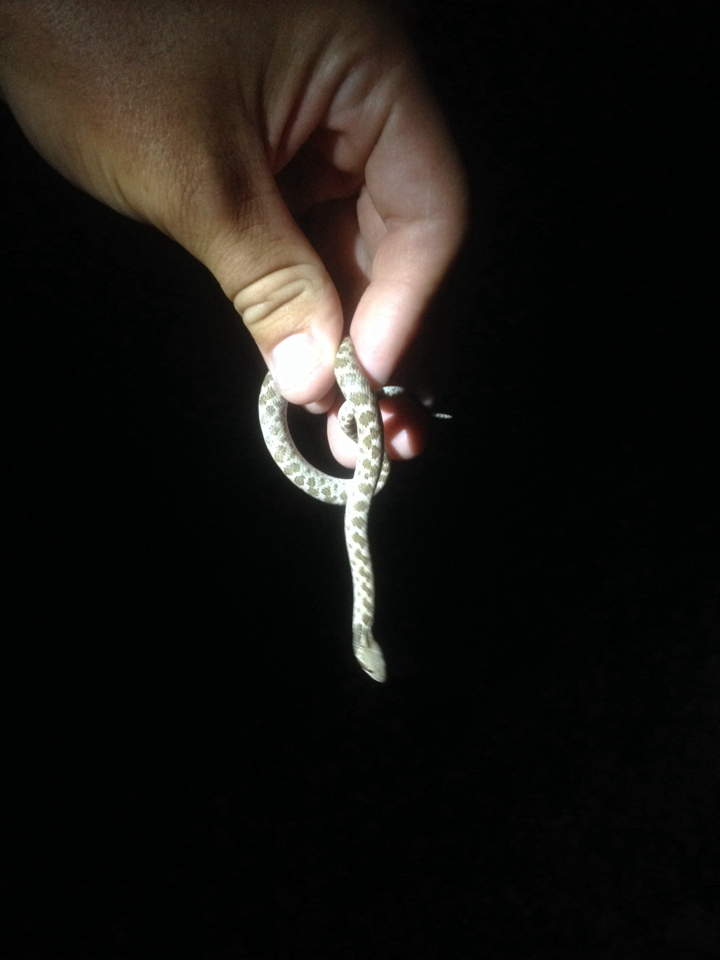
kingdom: Animalia
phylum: Chordata
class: Squamata
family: Colubridae
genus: Hypsiglena
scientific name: Hypsiglena jani
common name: Chihuahuan nightsnake
